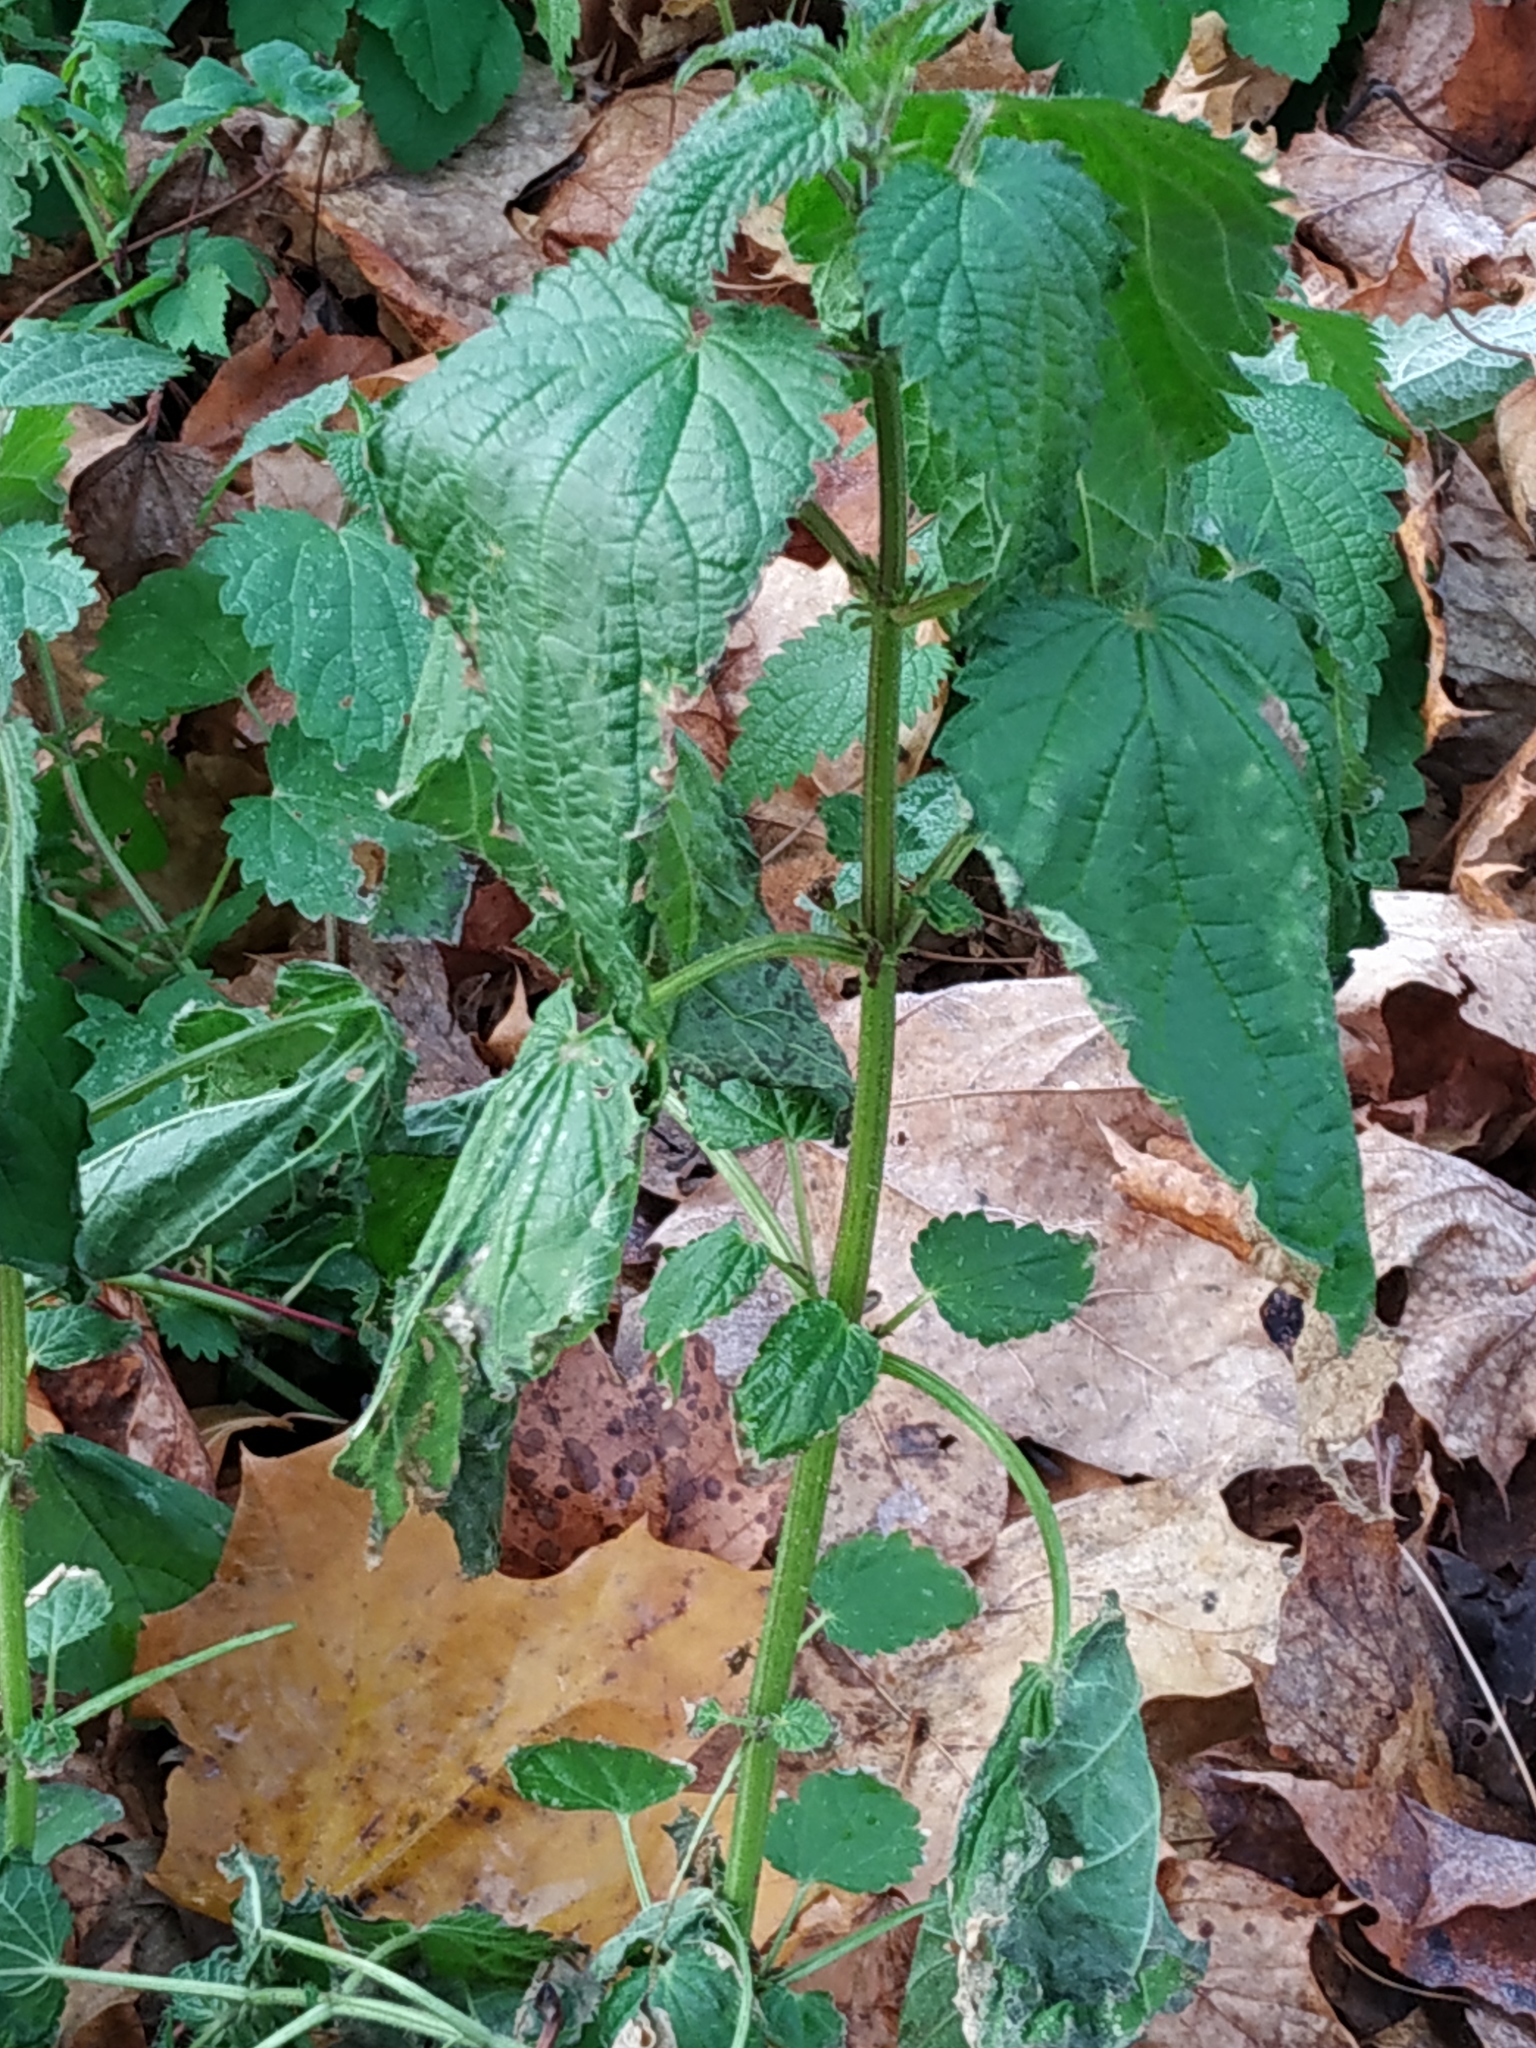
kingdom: Plantae
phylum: Tracheophyta
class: Magnoliopsida
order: Rosales
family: Urticaceae
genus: Urtica
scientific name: Urtica dioica
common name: Common nettle
